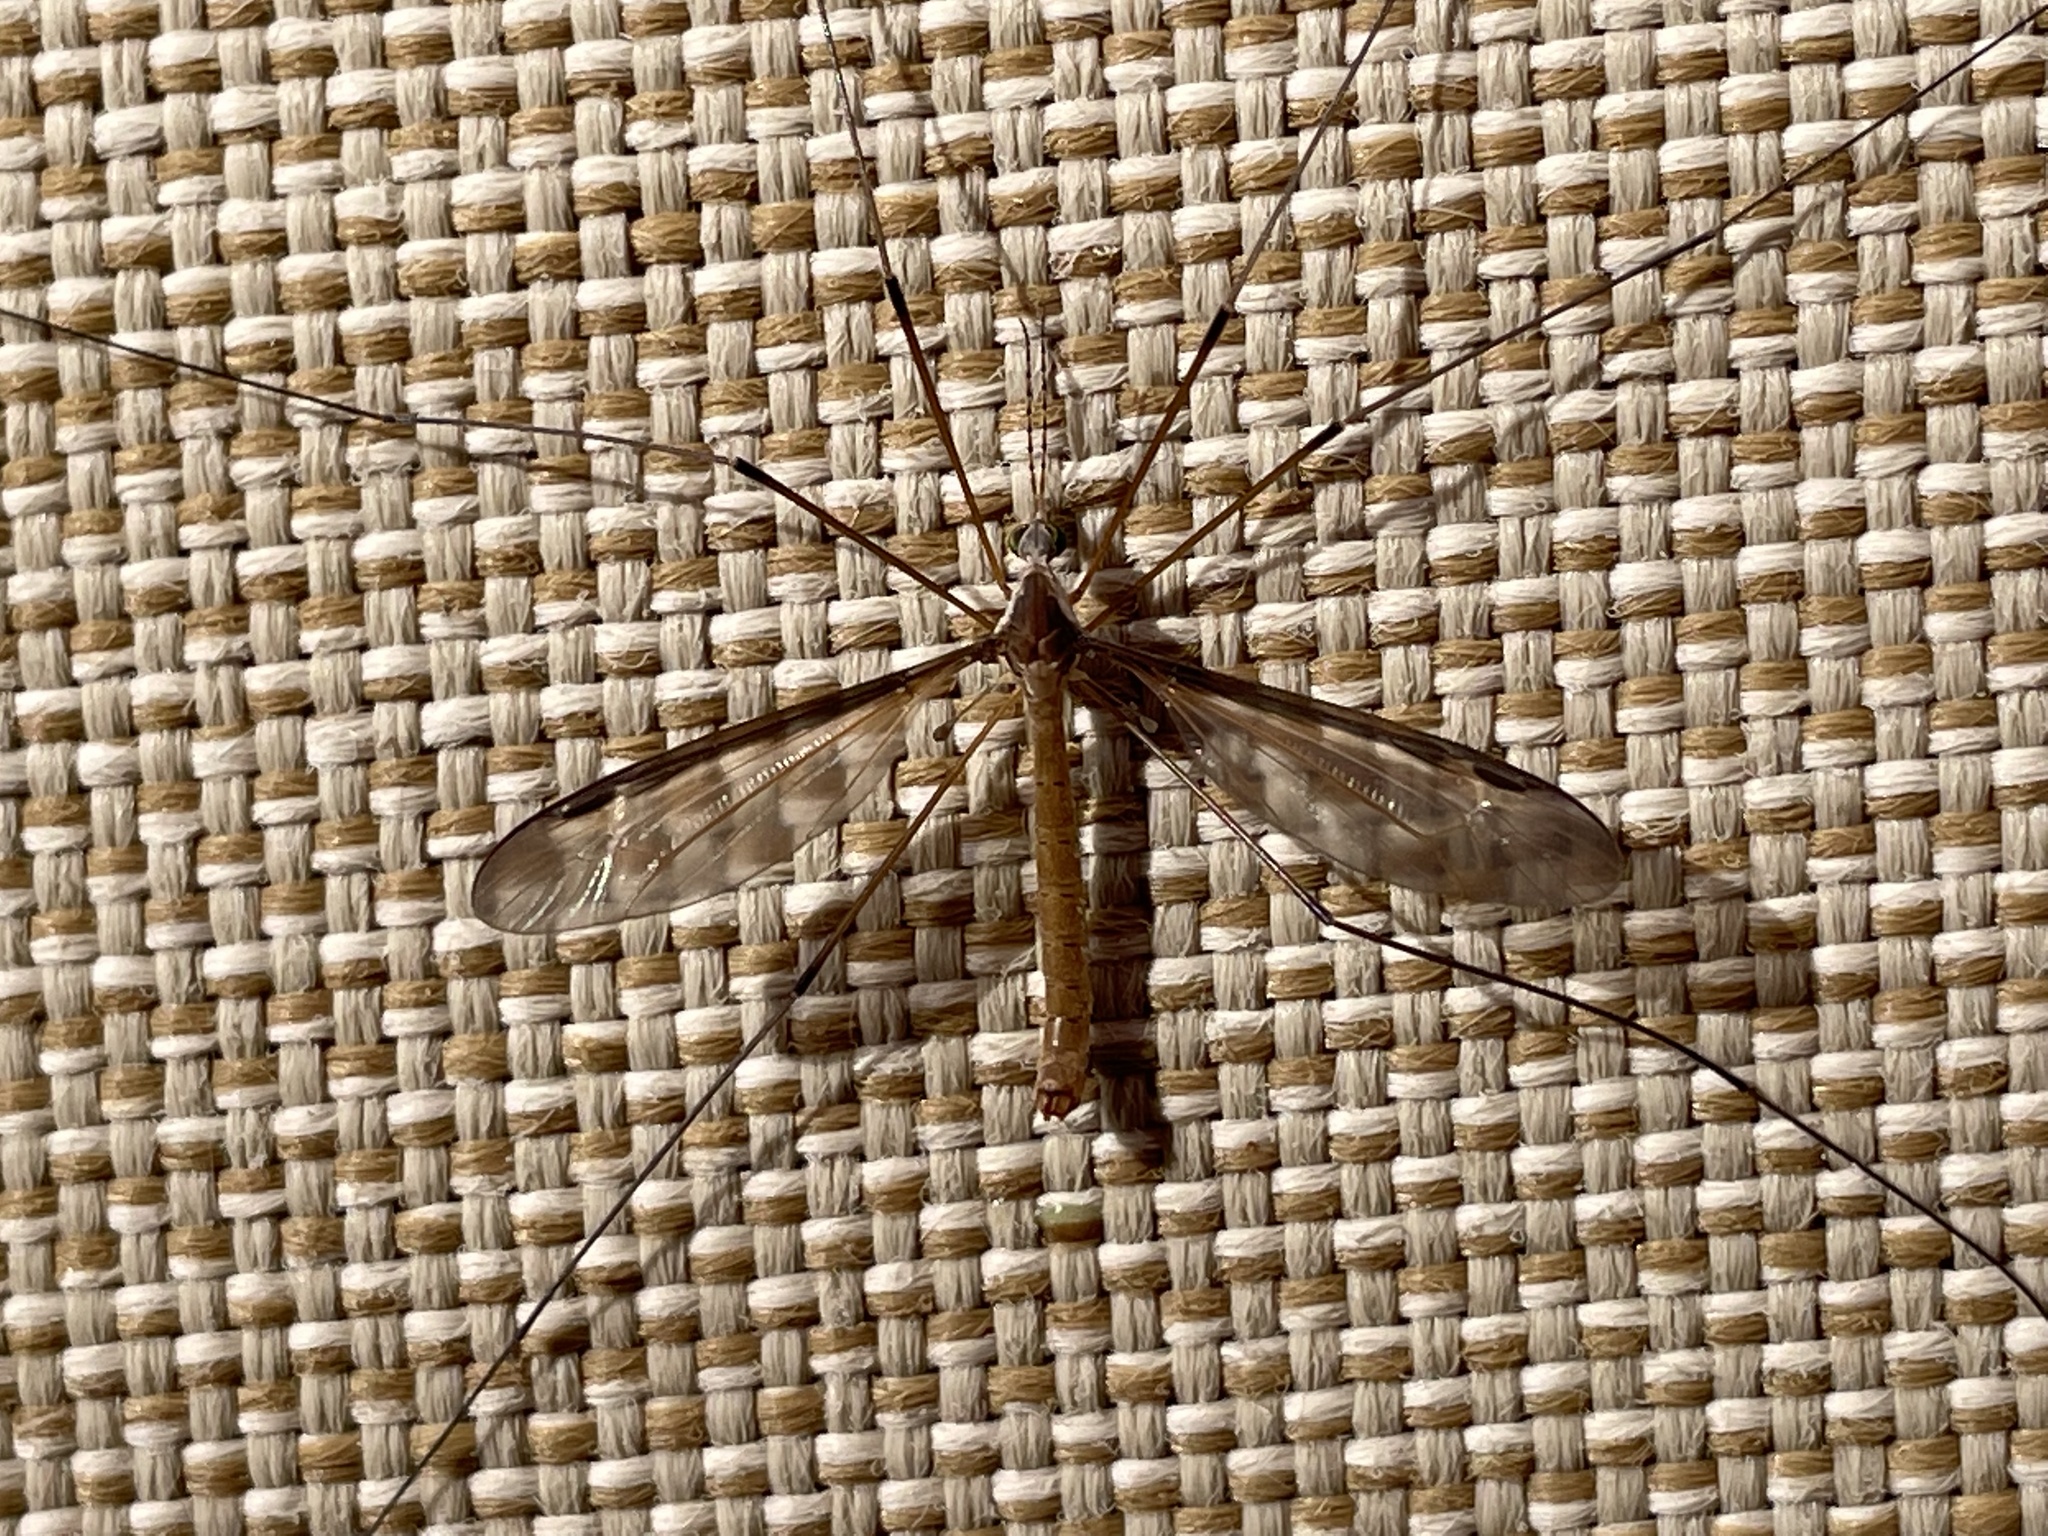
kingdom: Animalia
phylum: Arthropoda
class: Insecta
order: Diptera
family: Tipulidae
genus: Tipula
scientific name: Tipula sayi
